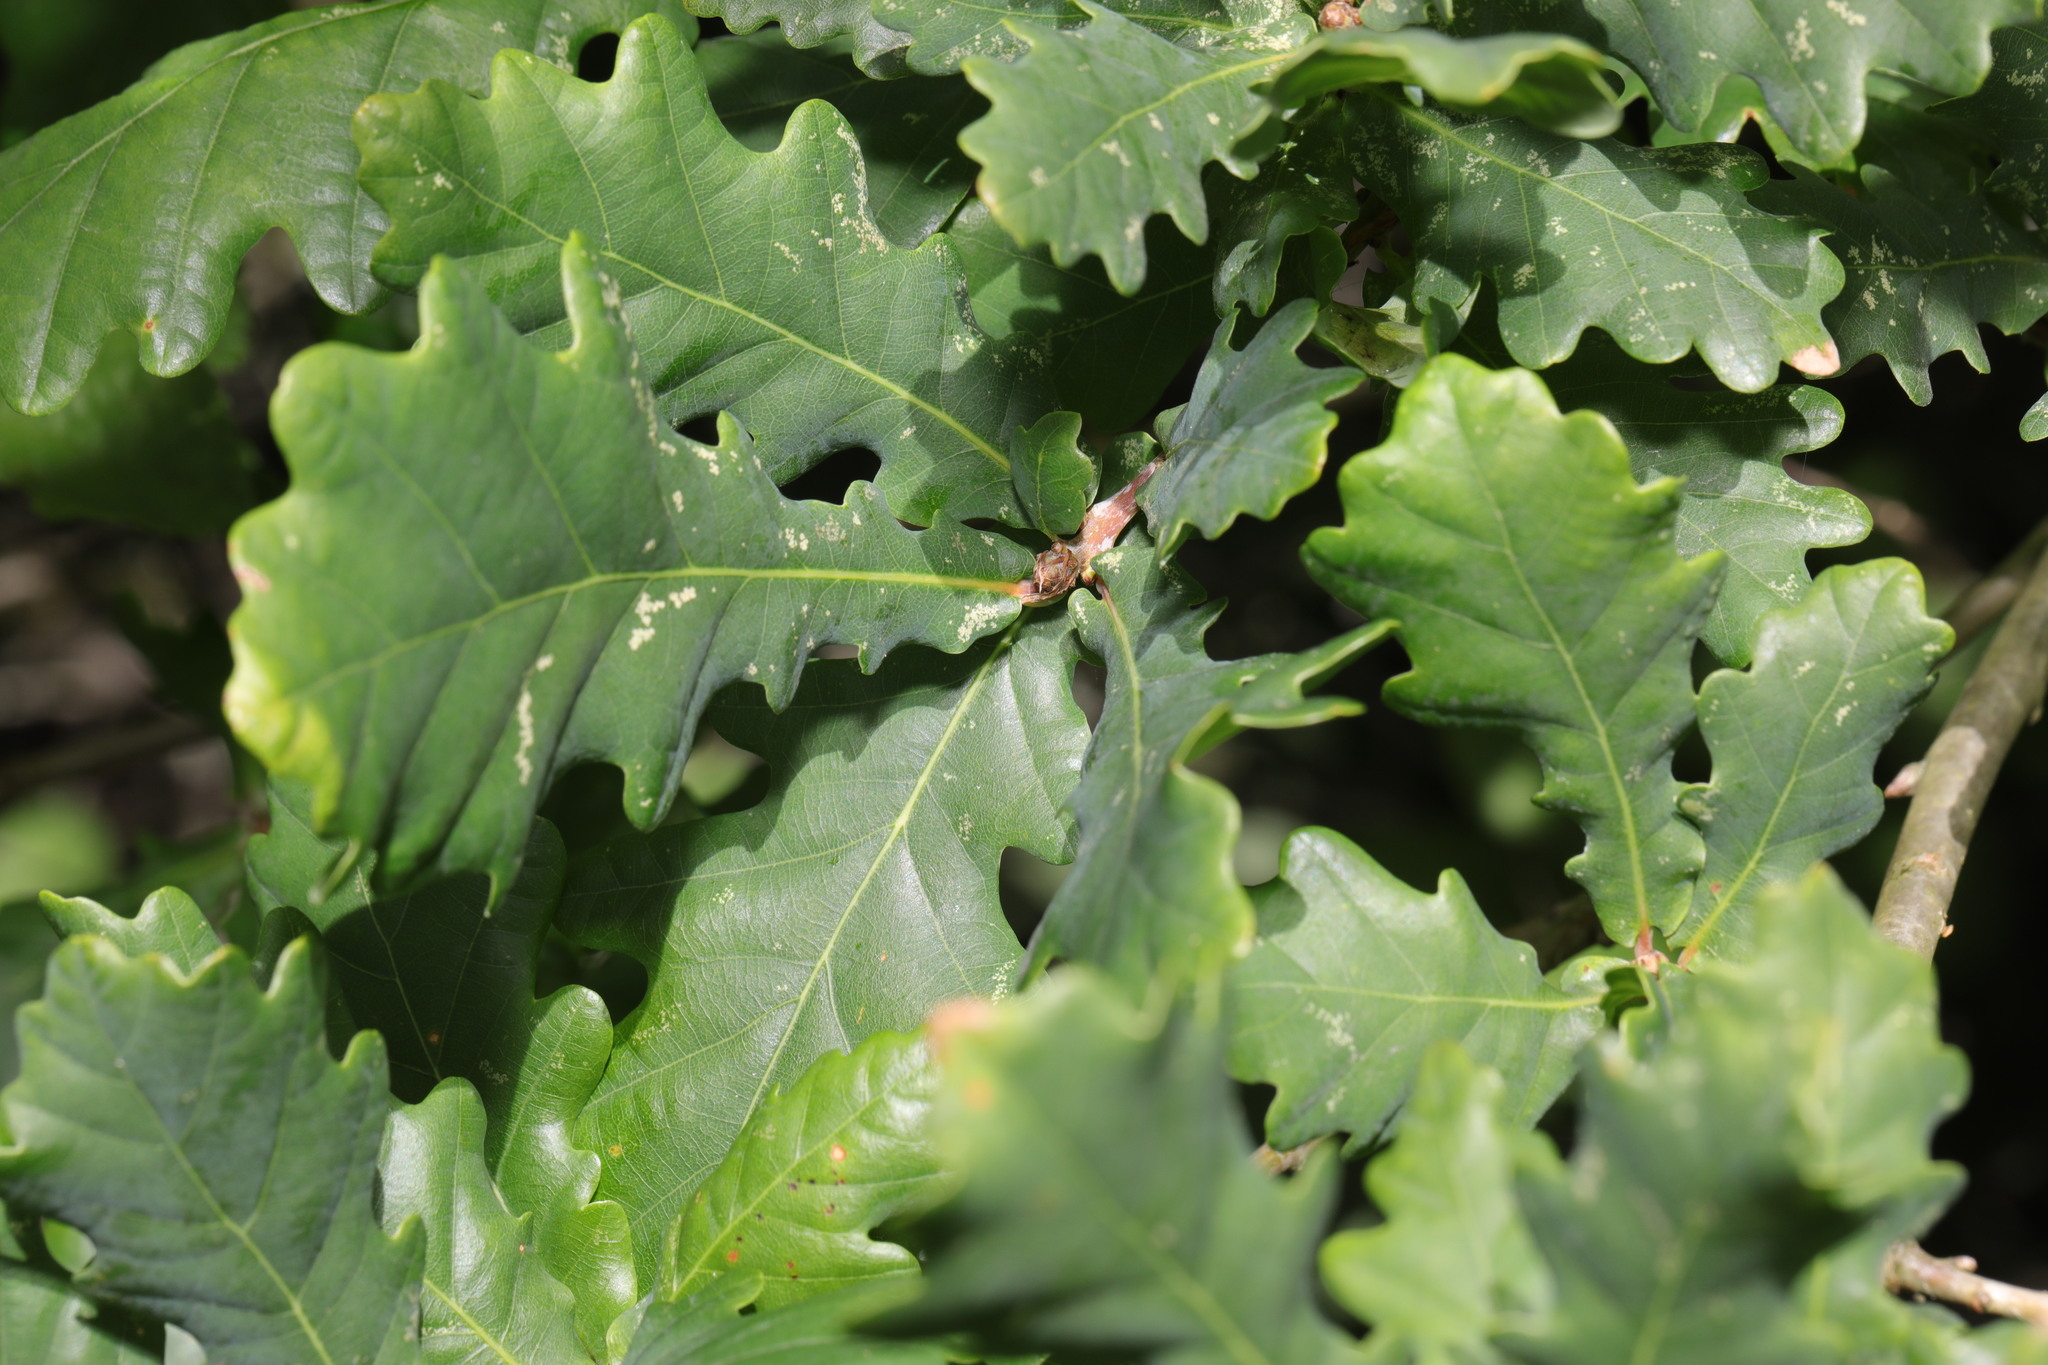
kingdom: Plantae
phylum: Tracheophyta
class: Magnoliopsida
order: Fagales
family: Fagaceae
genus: Quercus
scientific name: Quercus robur
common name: Pedunculate oak
